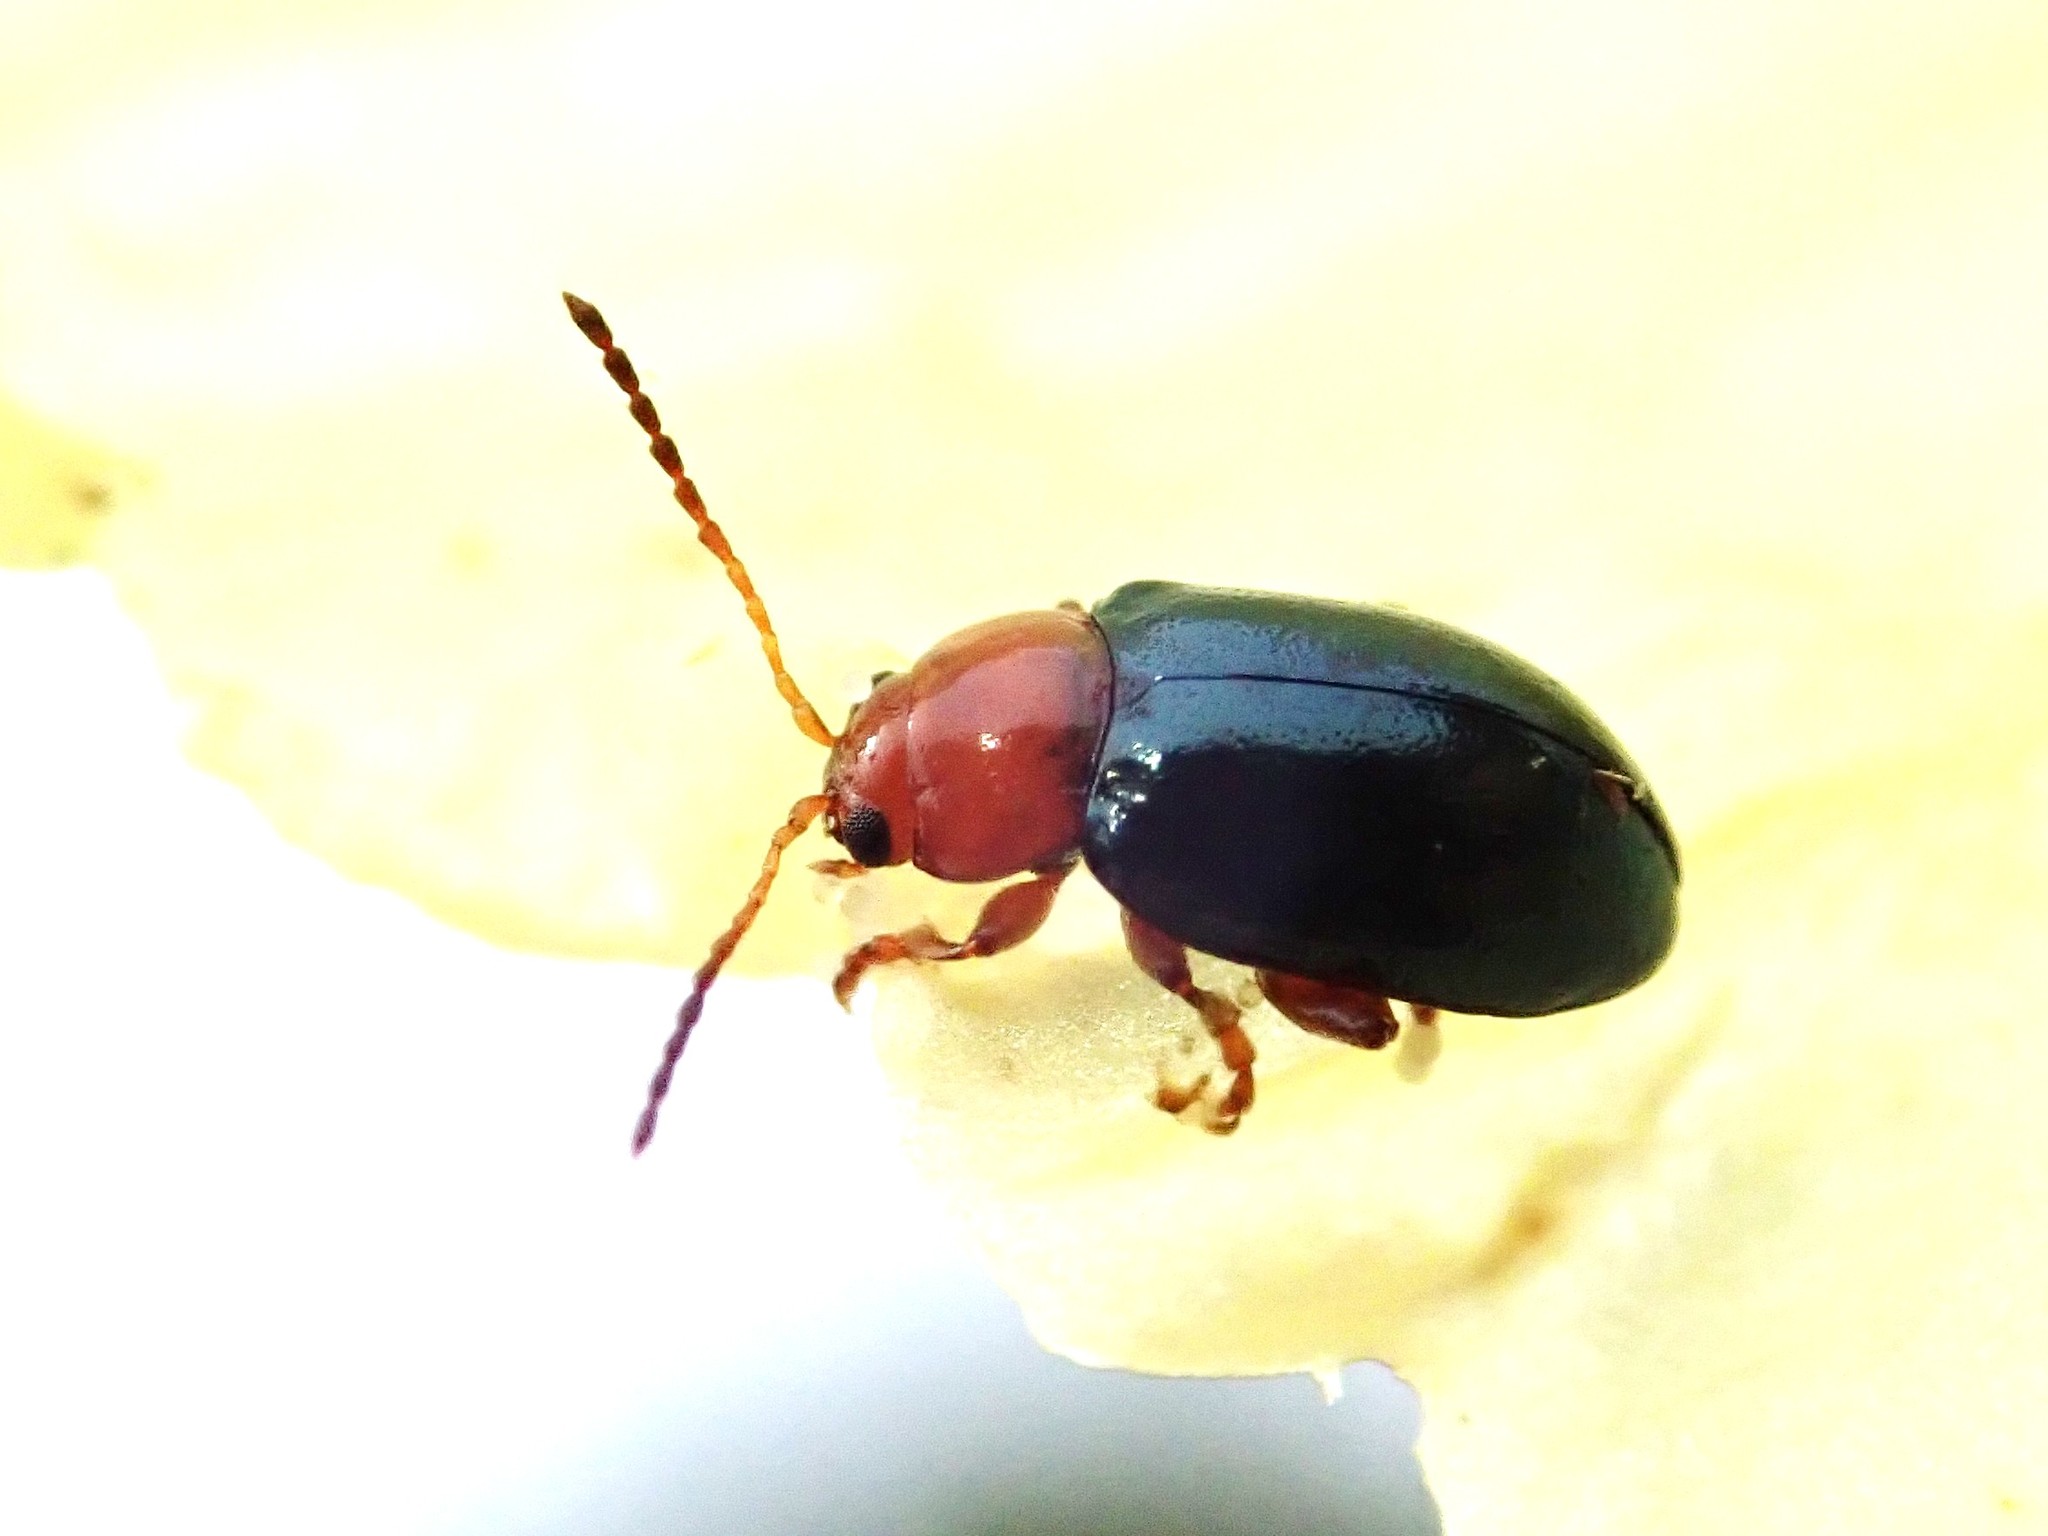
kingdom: Animalia
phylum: Arthropoda
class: Insecta
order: Coleoptera
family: Chrysomelidae
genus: Podagrica
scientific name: Podagrica fuscicornis
